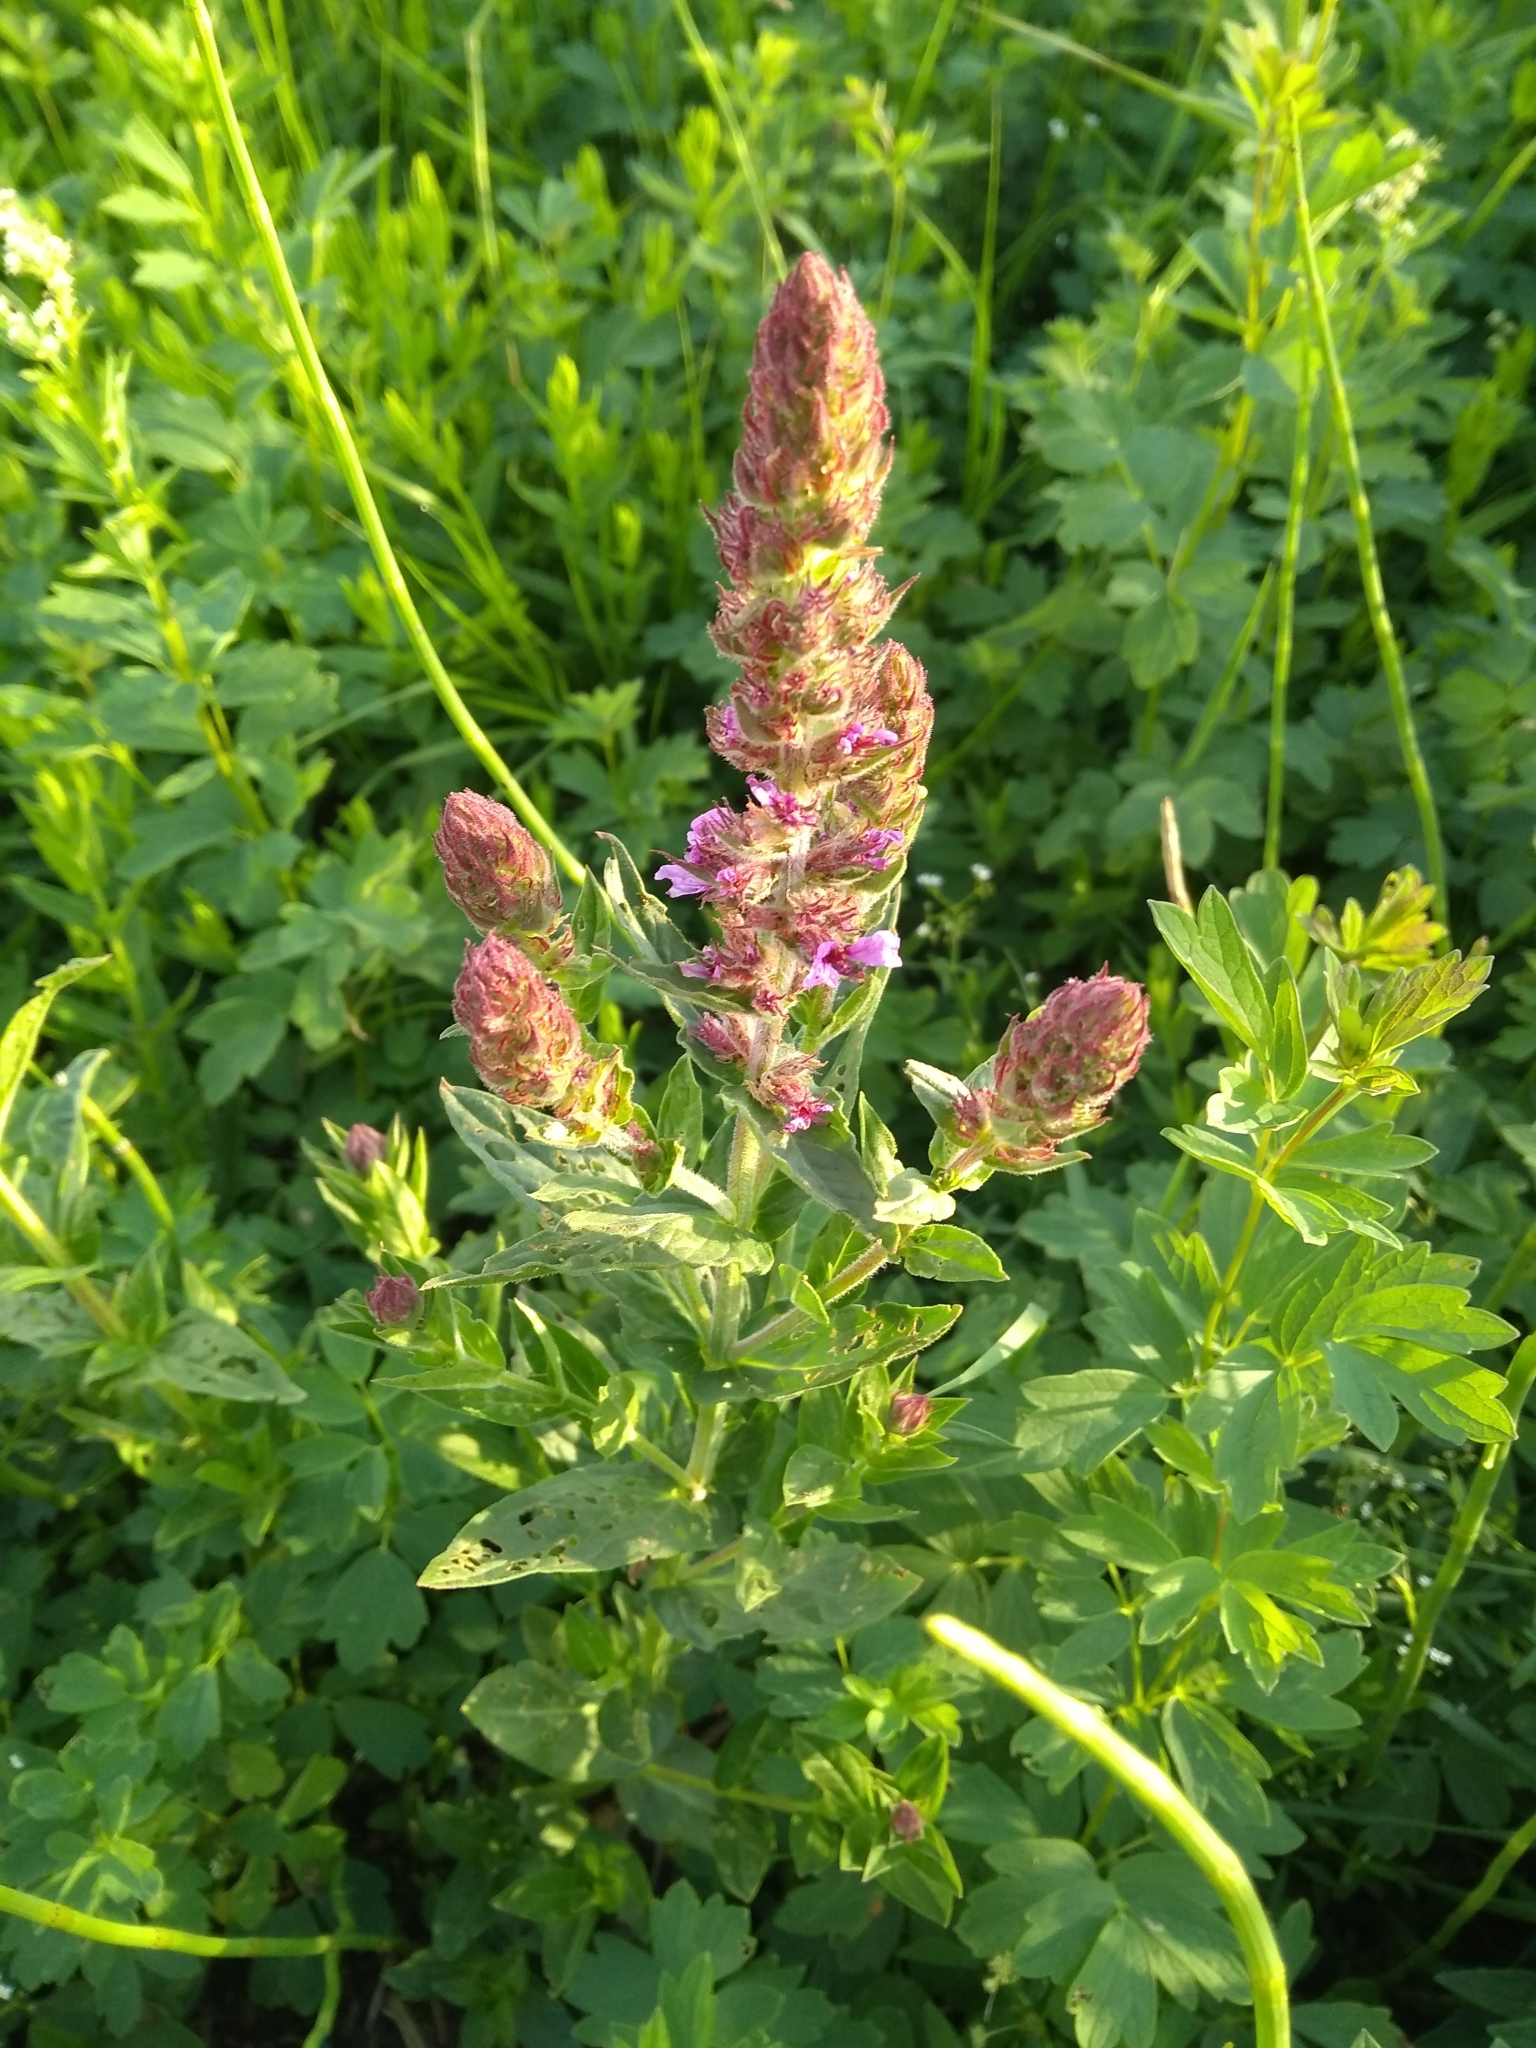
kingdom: Plantae
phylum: Tracheophyta
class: Magnoliopsida
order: Myrtales
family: Lythraceae
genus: Lythrum
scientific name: Lythrum salicaria
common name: Purple loosestrife
